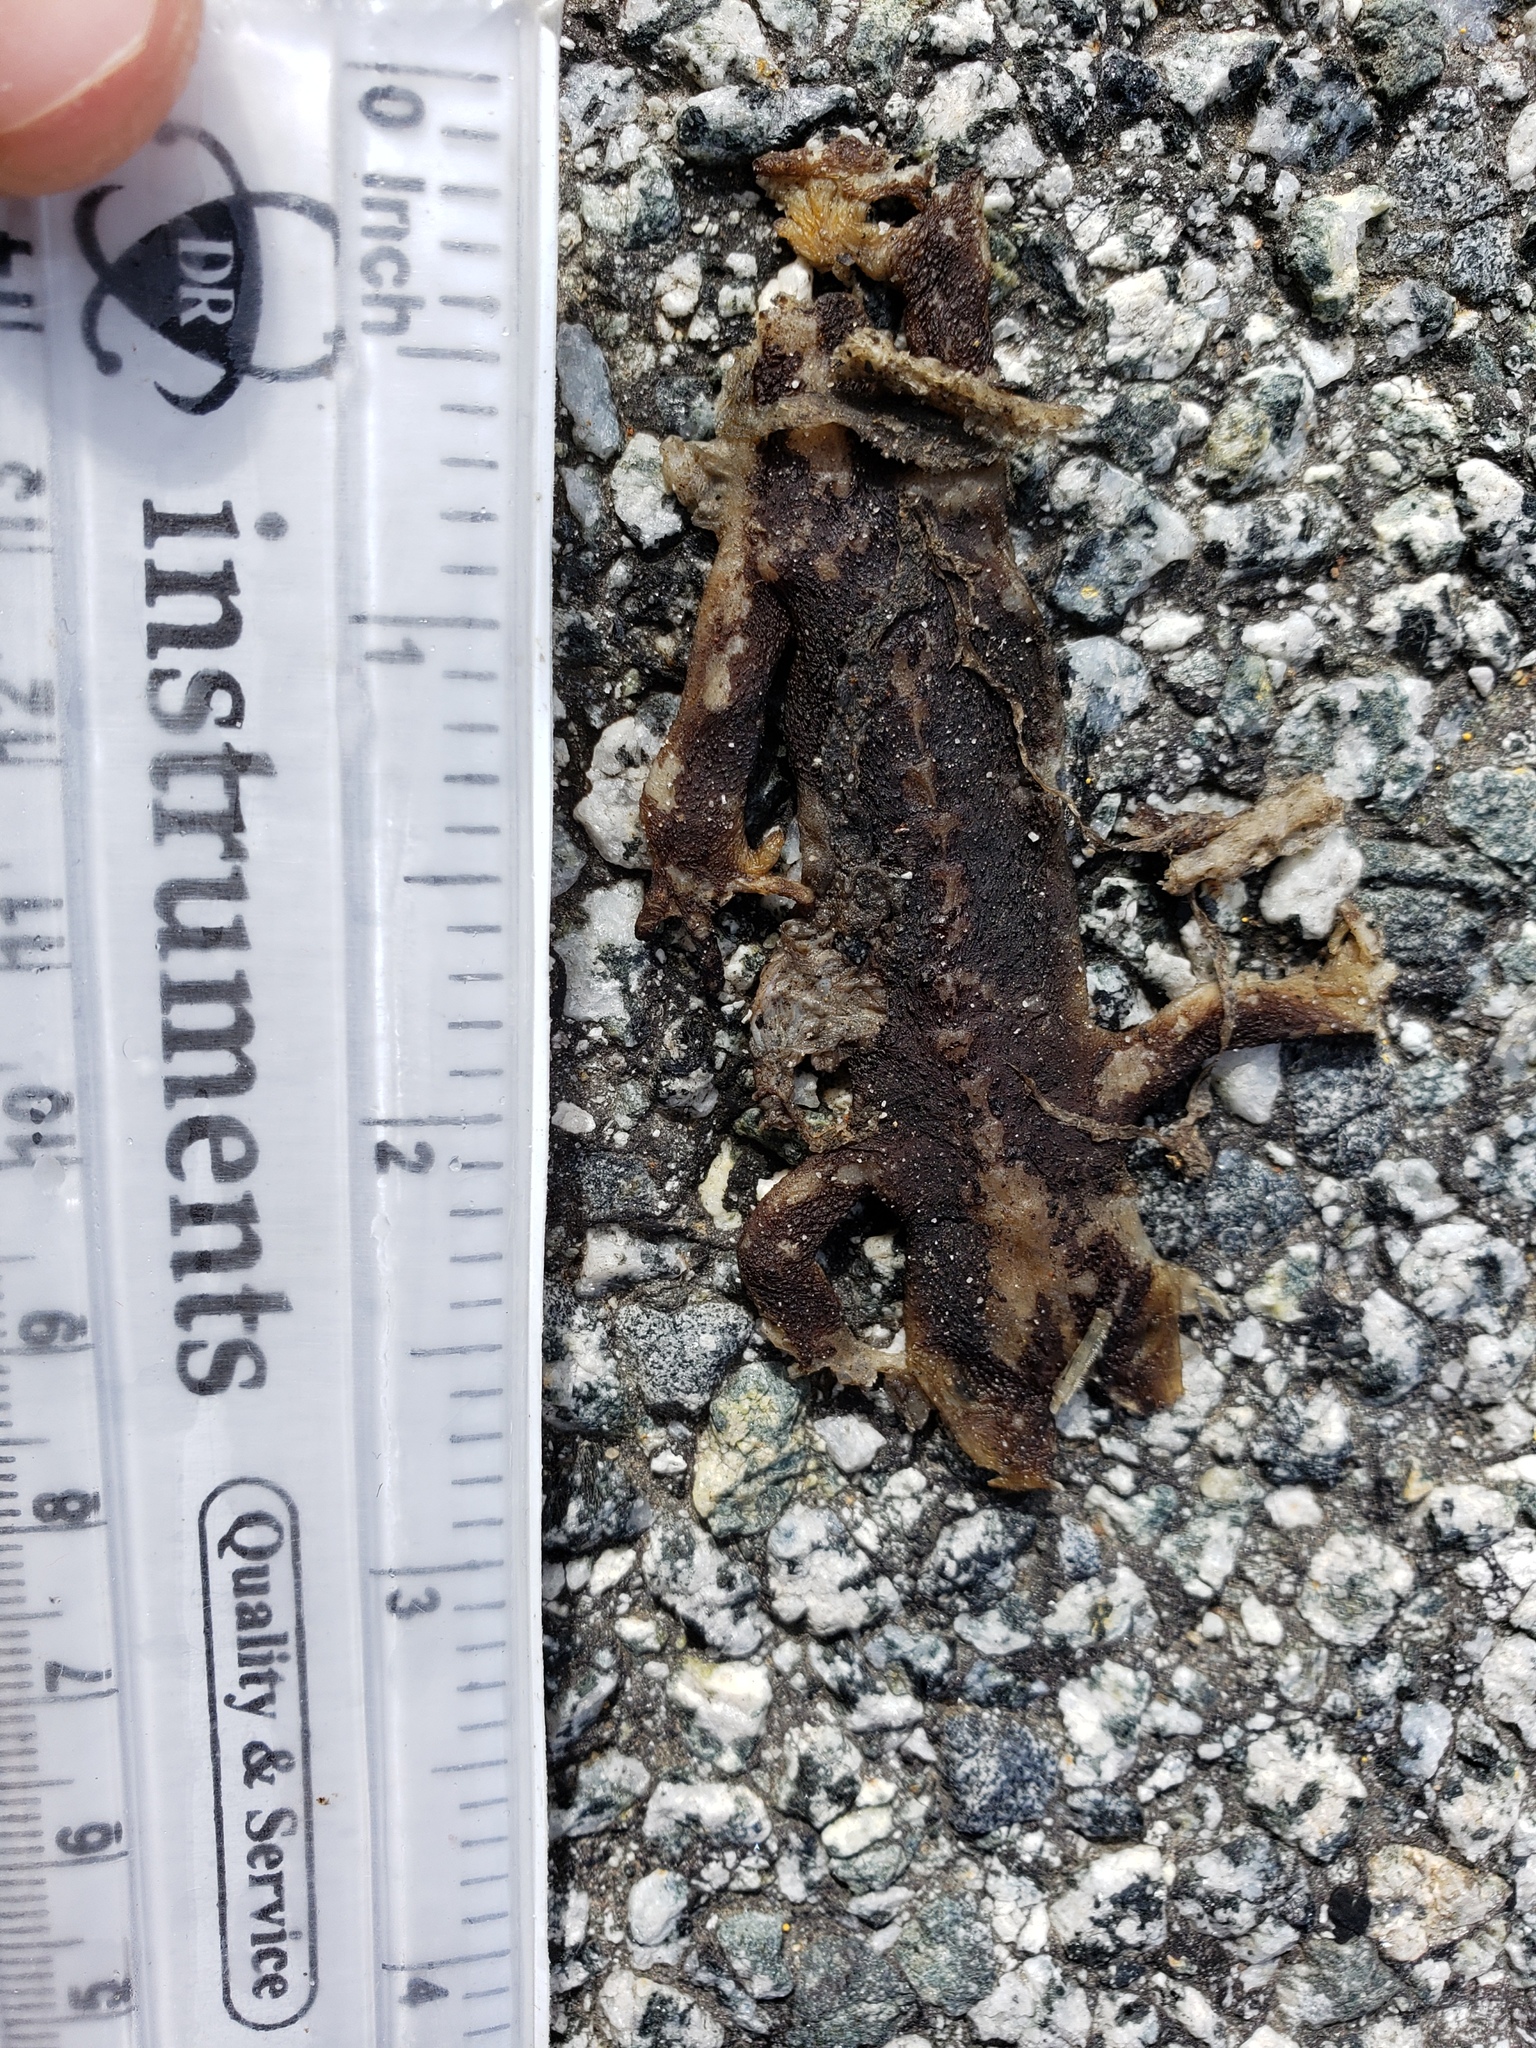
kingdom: Animalia
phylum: Chordata
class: Amphibia
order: Caudata
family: Salamandridae
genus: Taricha
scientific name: Taricha
